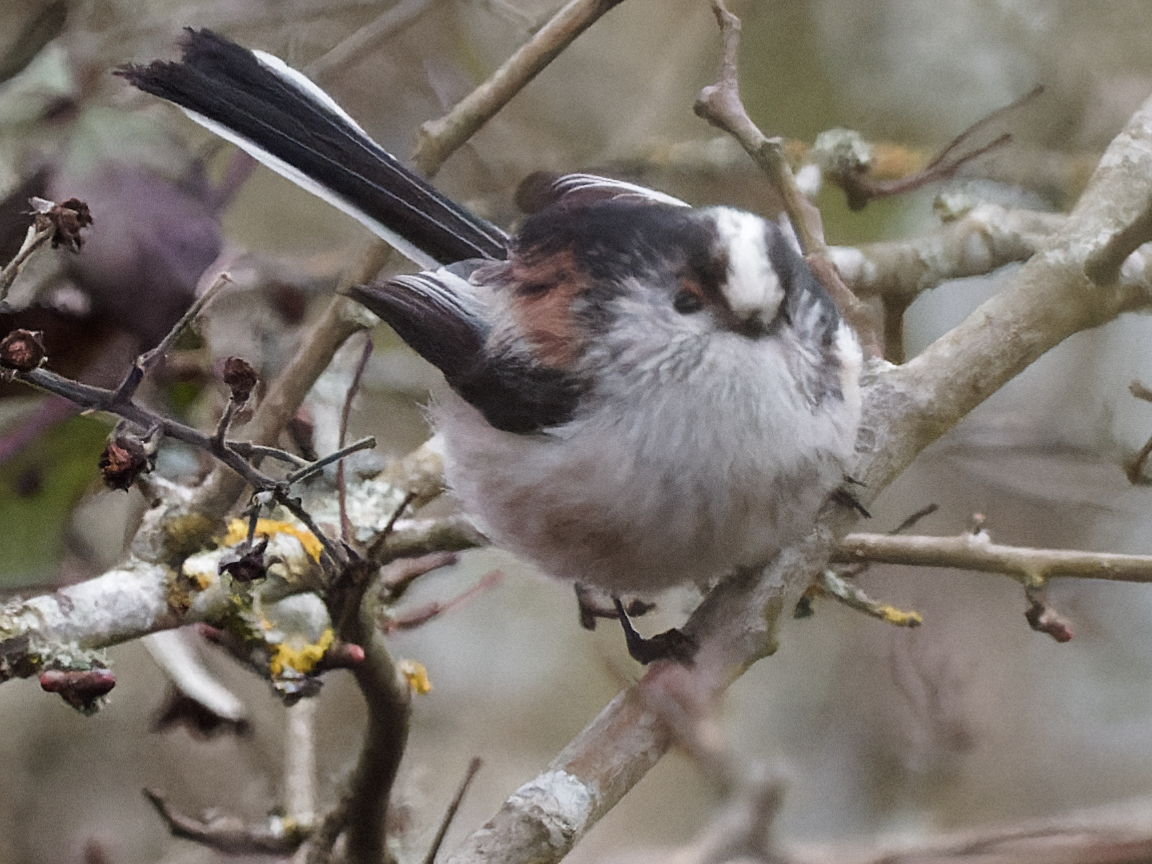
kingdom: Animalia
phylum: Chordata
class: Aves
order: Passeriformes
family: Aegithalidae
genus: Aegithalos
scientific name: Aegithalos caudatus
